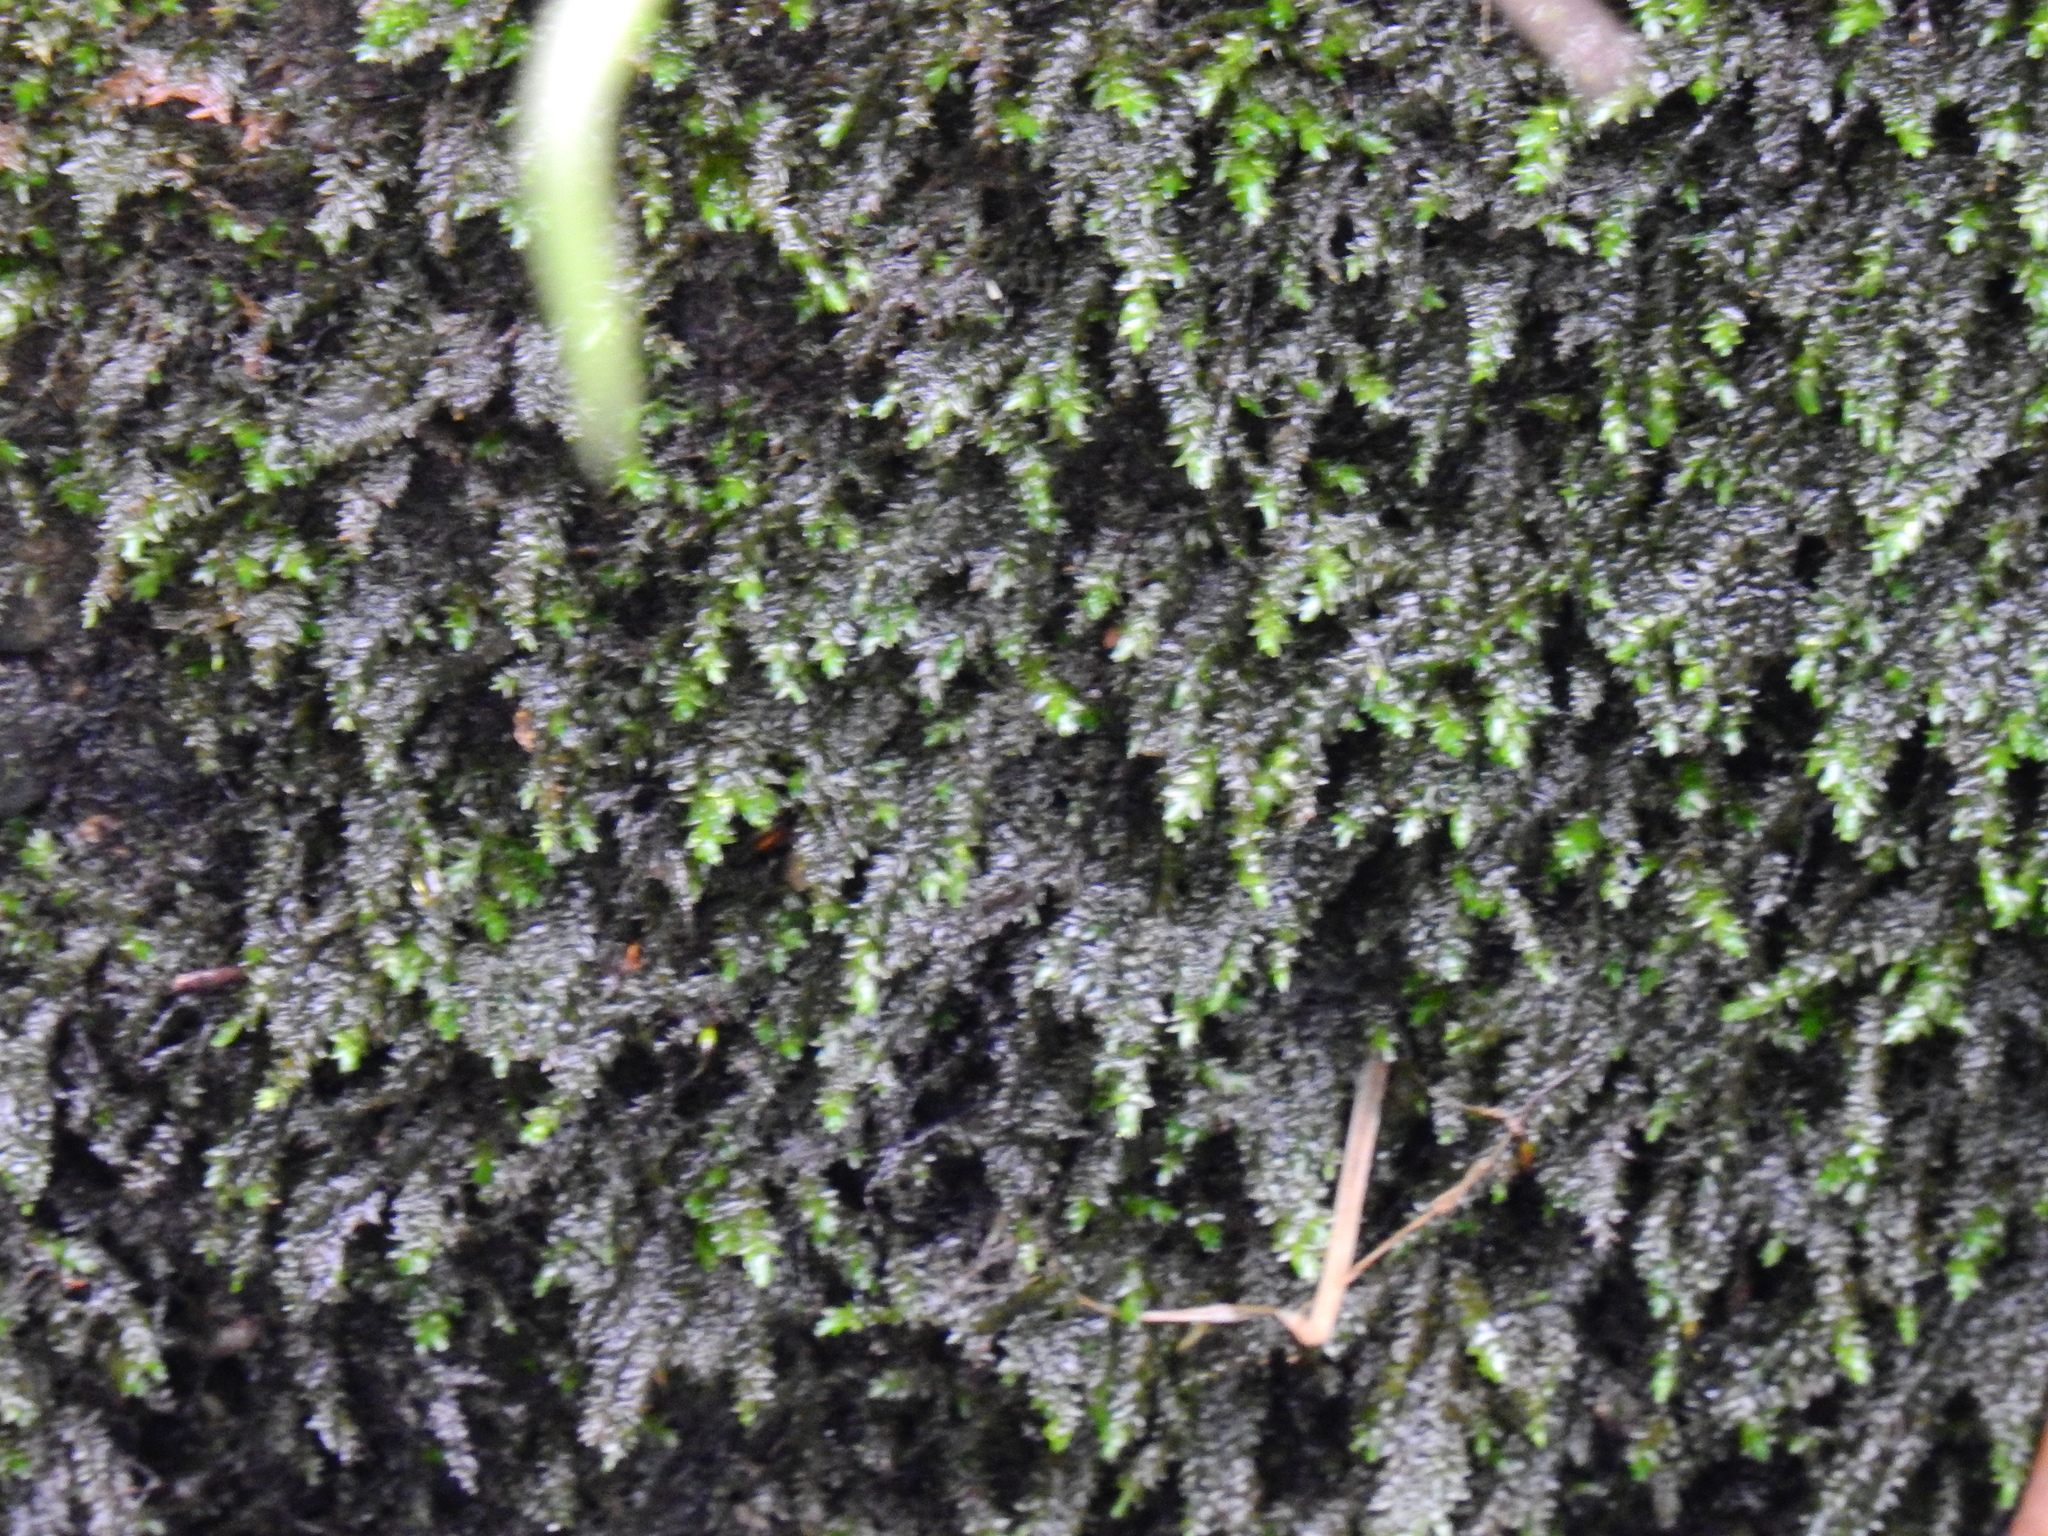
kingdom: Plantae
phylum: Bryophyta
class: Bryopsida
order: Hypnales
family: Brachytheciaceae
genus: Rhynchostegium
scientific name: Rhynchostegium riparioides
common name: Platyhypnidium moss
